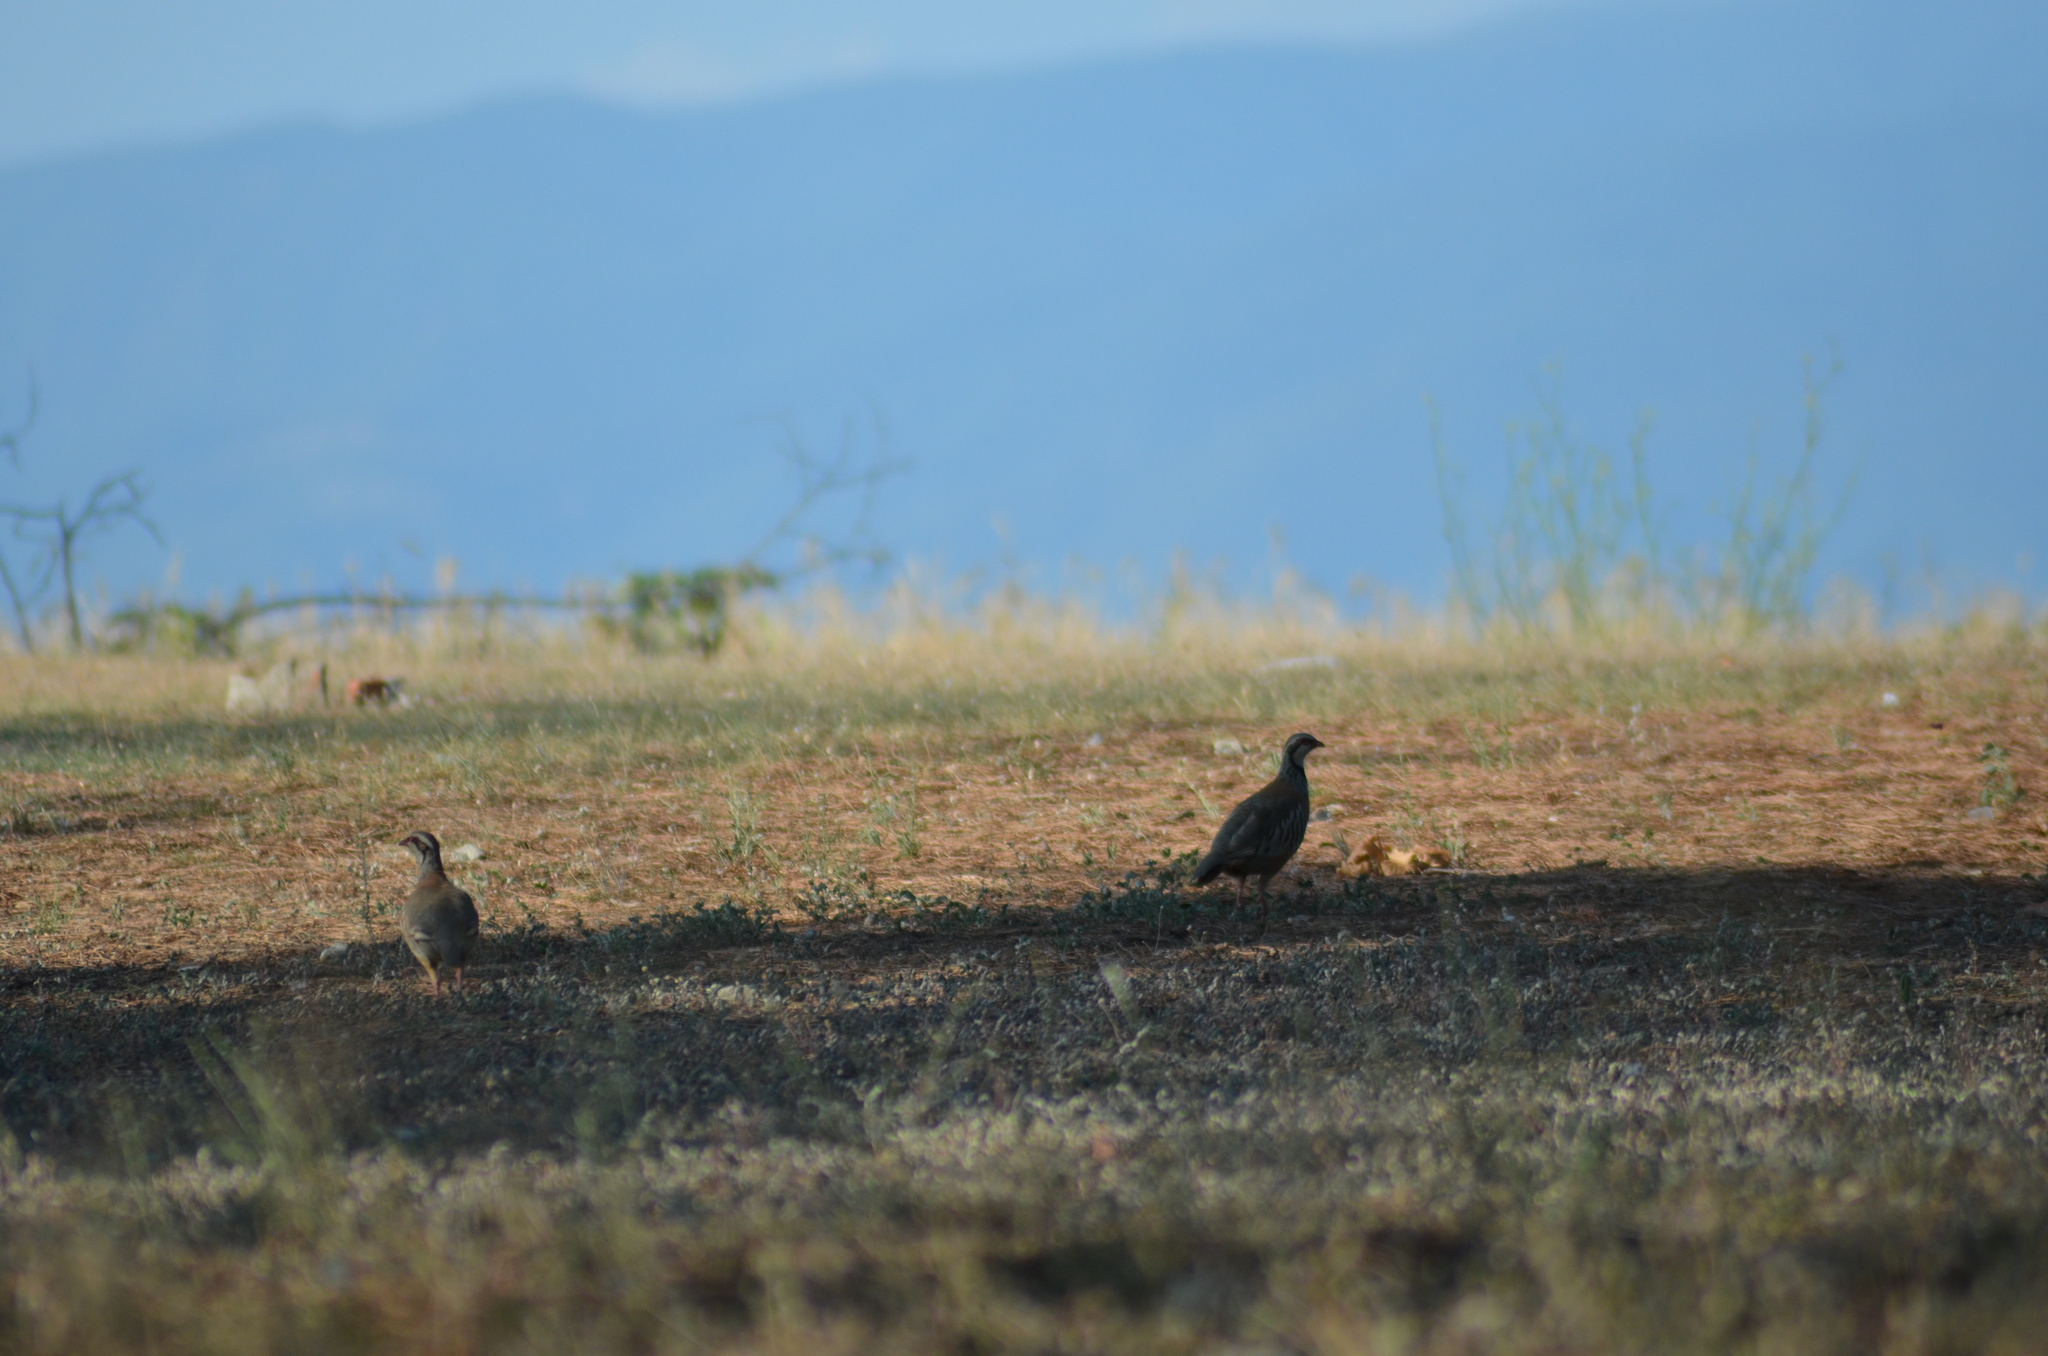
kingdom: Animalia
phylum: Chordata
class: Aves
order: Galliformes
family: Phasianidae
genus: Alectoris
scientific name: Alectoris rufa
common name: Red-legged partridge
